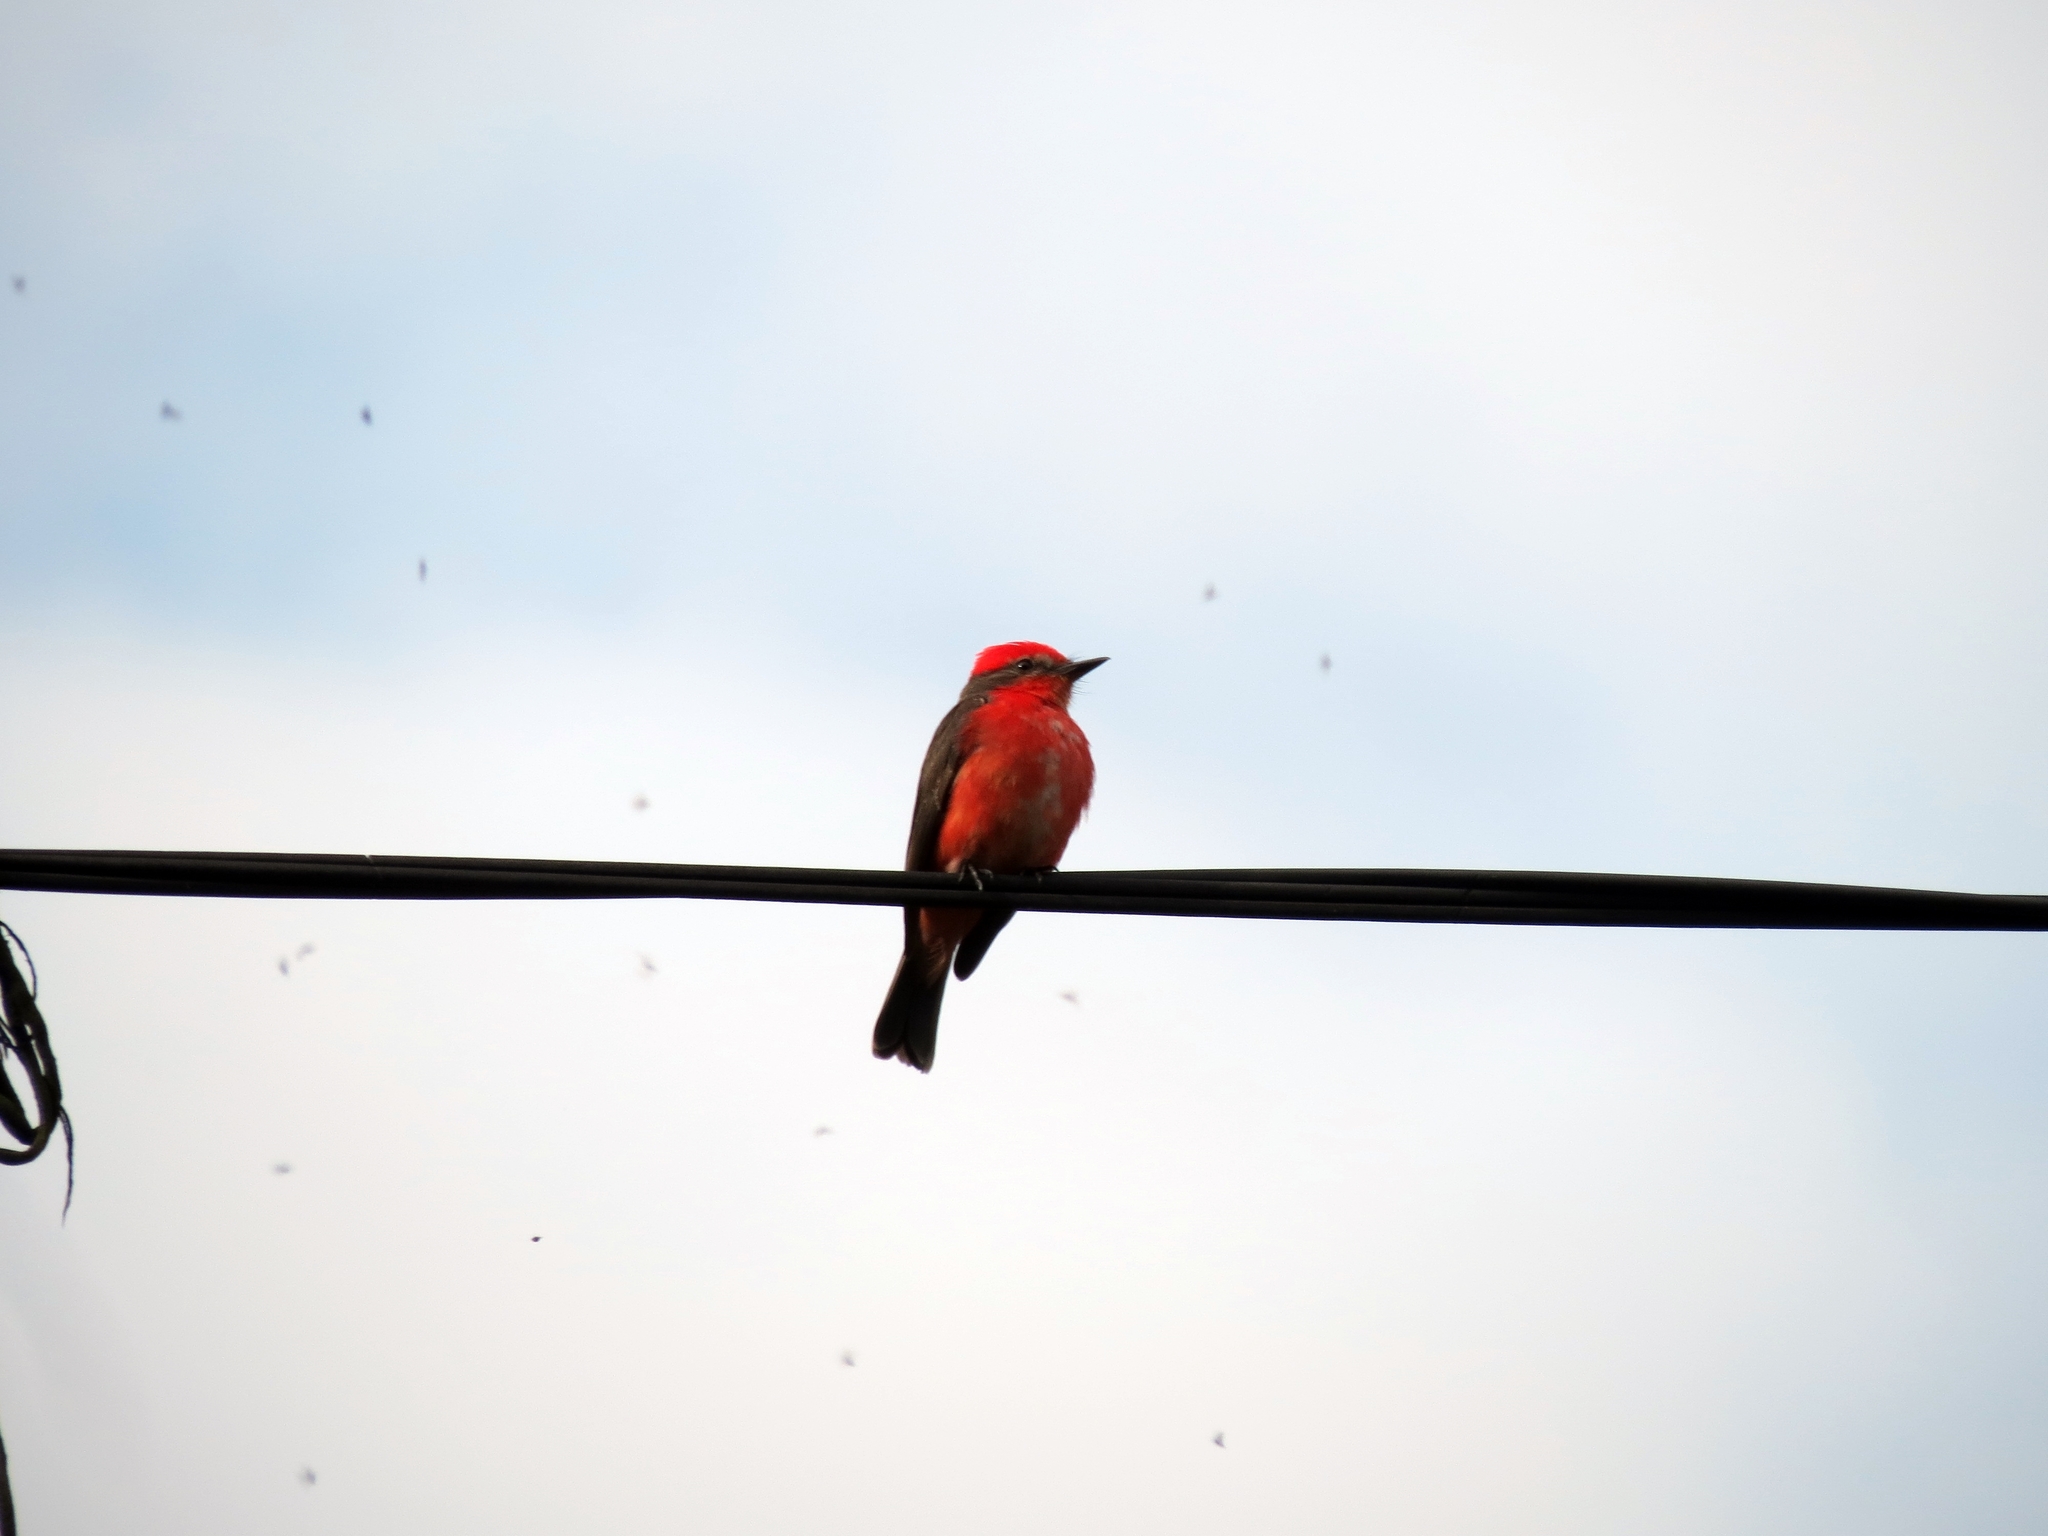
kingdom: Animalia
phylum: Chordata
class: Aves
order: Passeriformes
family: Tyrannidae
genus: Pyrocephalus
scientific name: Pyrocephalus rubinus
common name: Vermilion flycatcher
